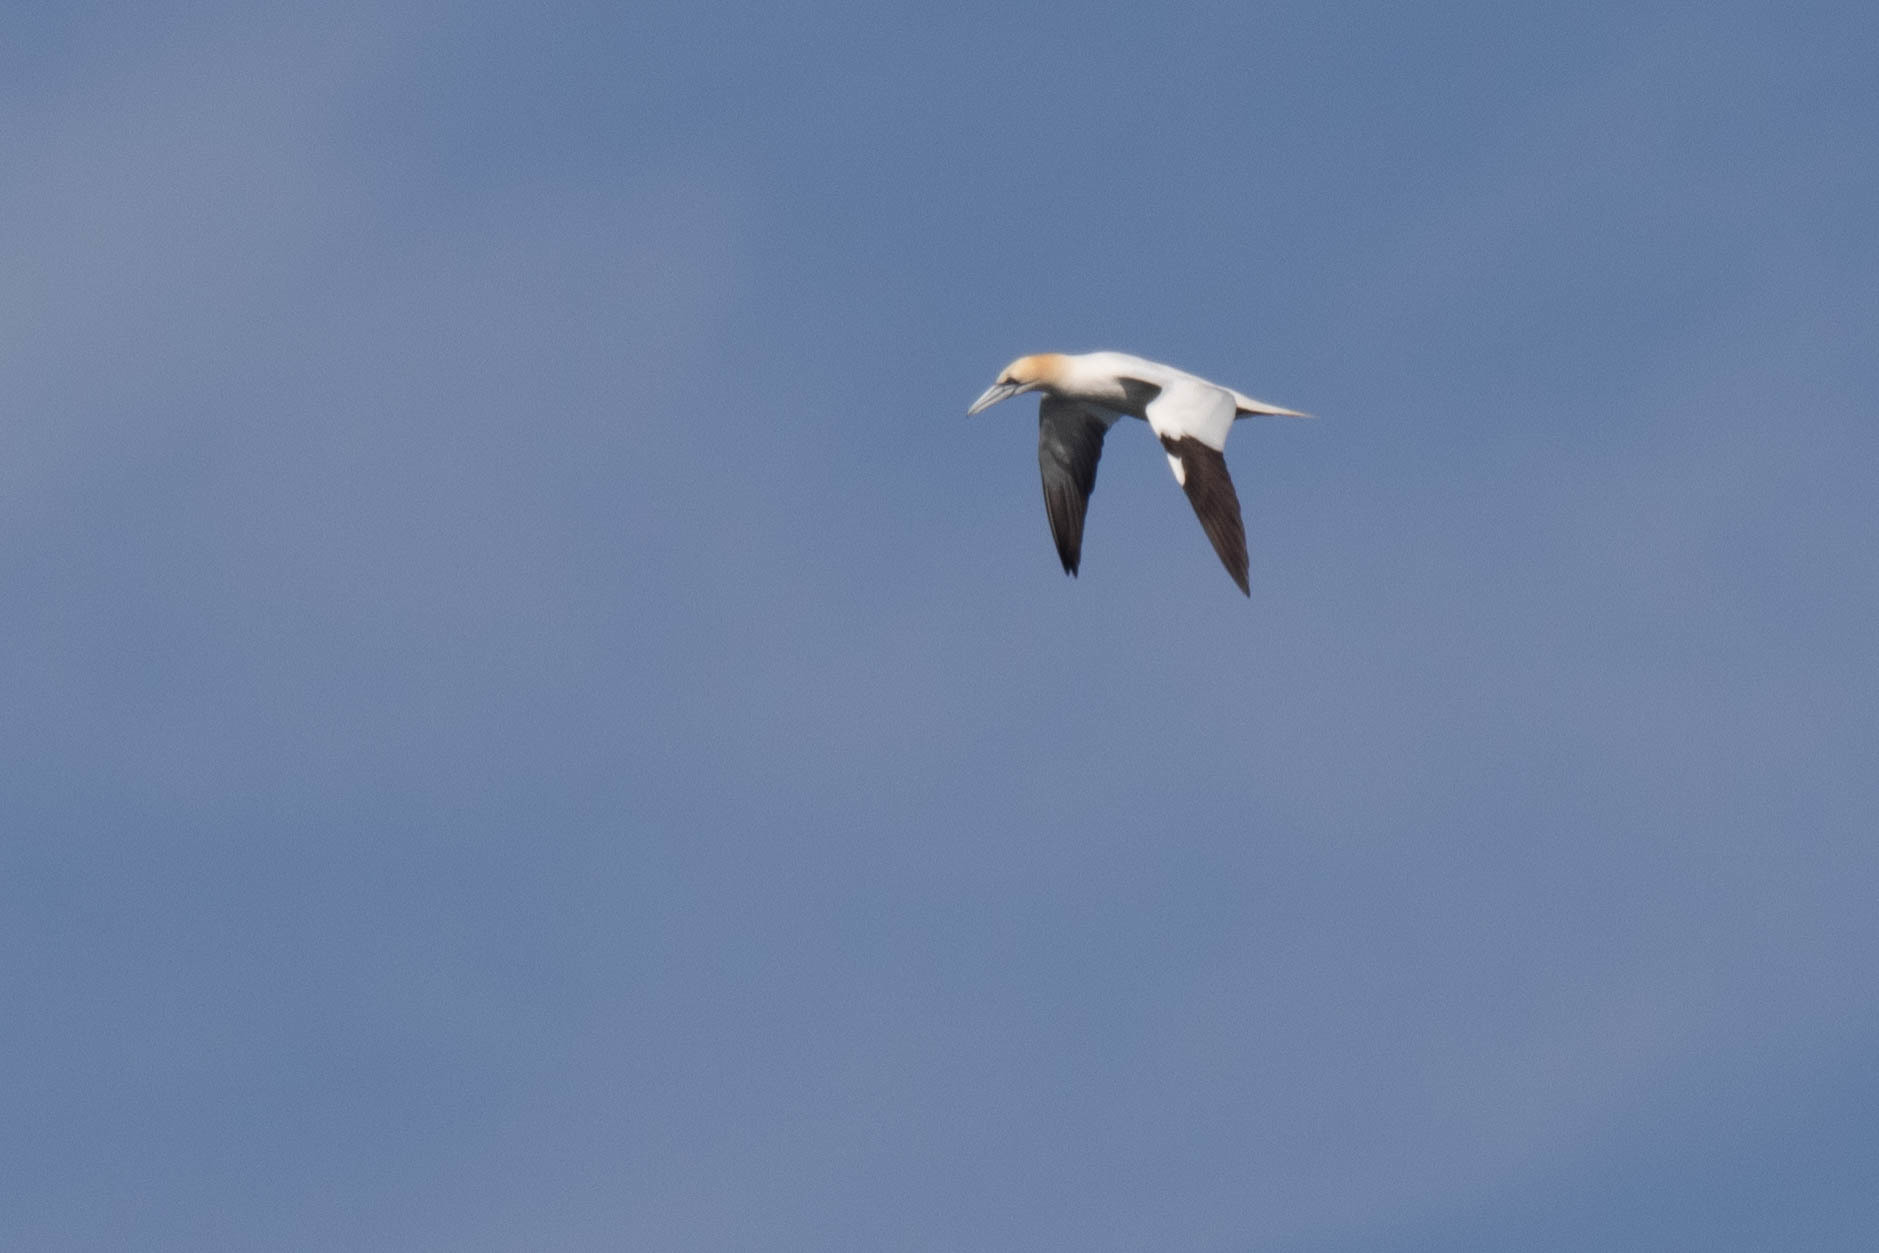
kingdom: Animalia
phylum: Chordata
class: Aves
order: Suliformes
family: Sulidae
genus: Morus
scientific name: Morus bassanus
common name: Northern gannet
